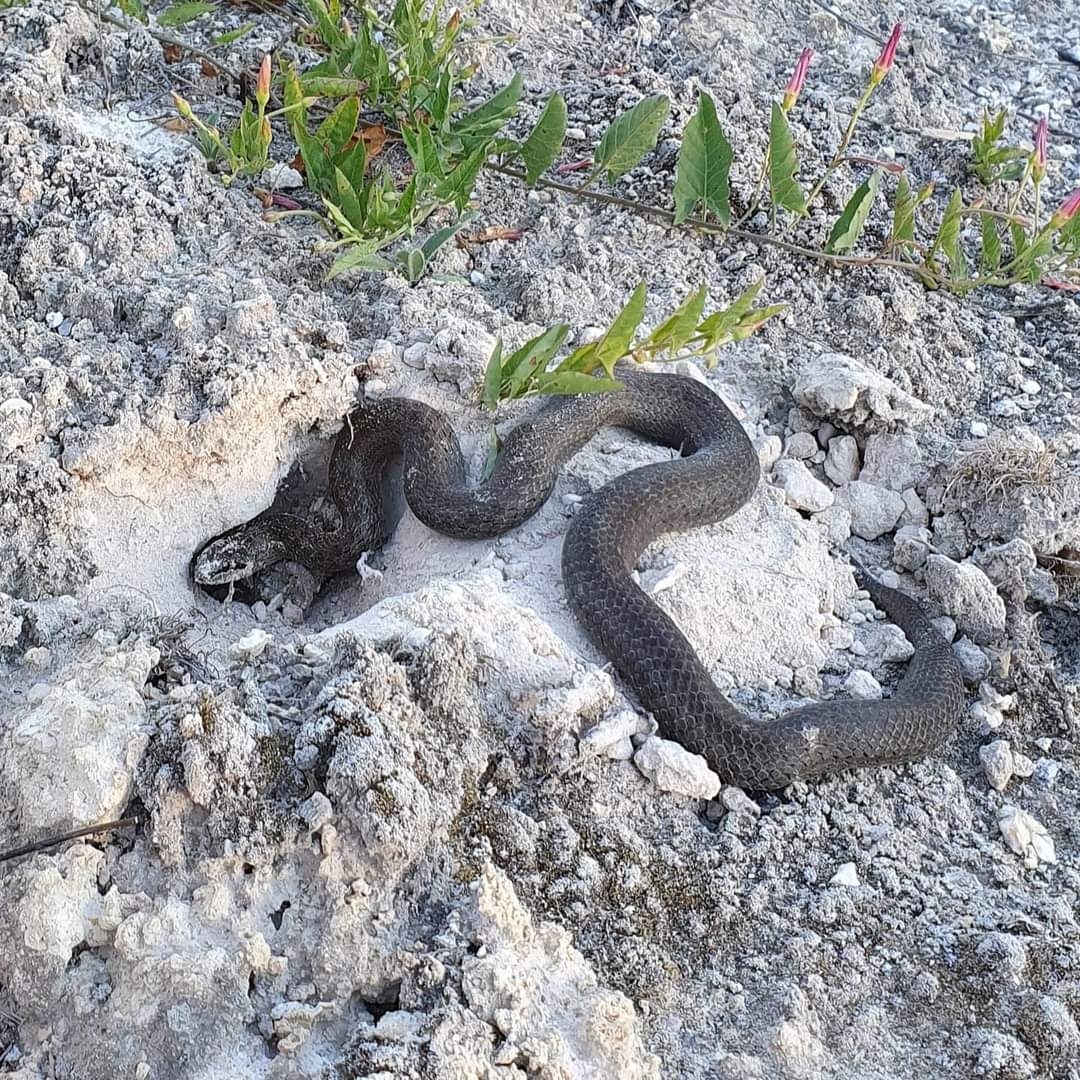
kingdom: Animalia
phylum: Chordata
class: Squamata
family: Colubridae
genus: Coronella
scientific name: Coronella austriaca
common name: Smooth snake
